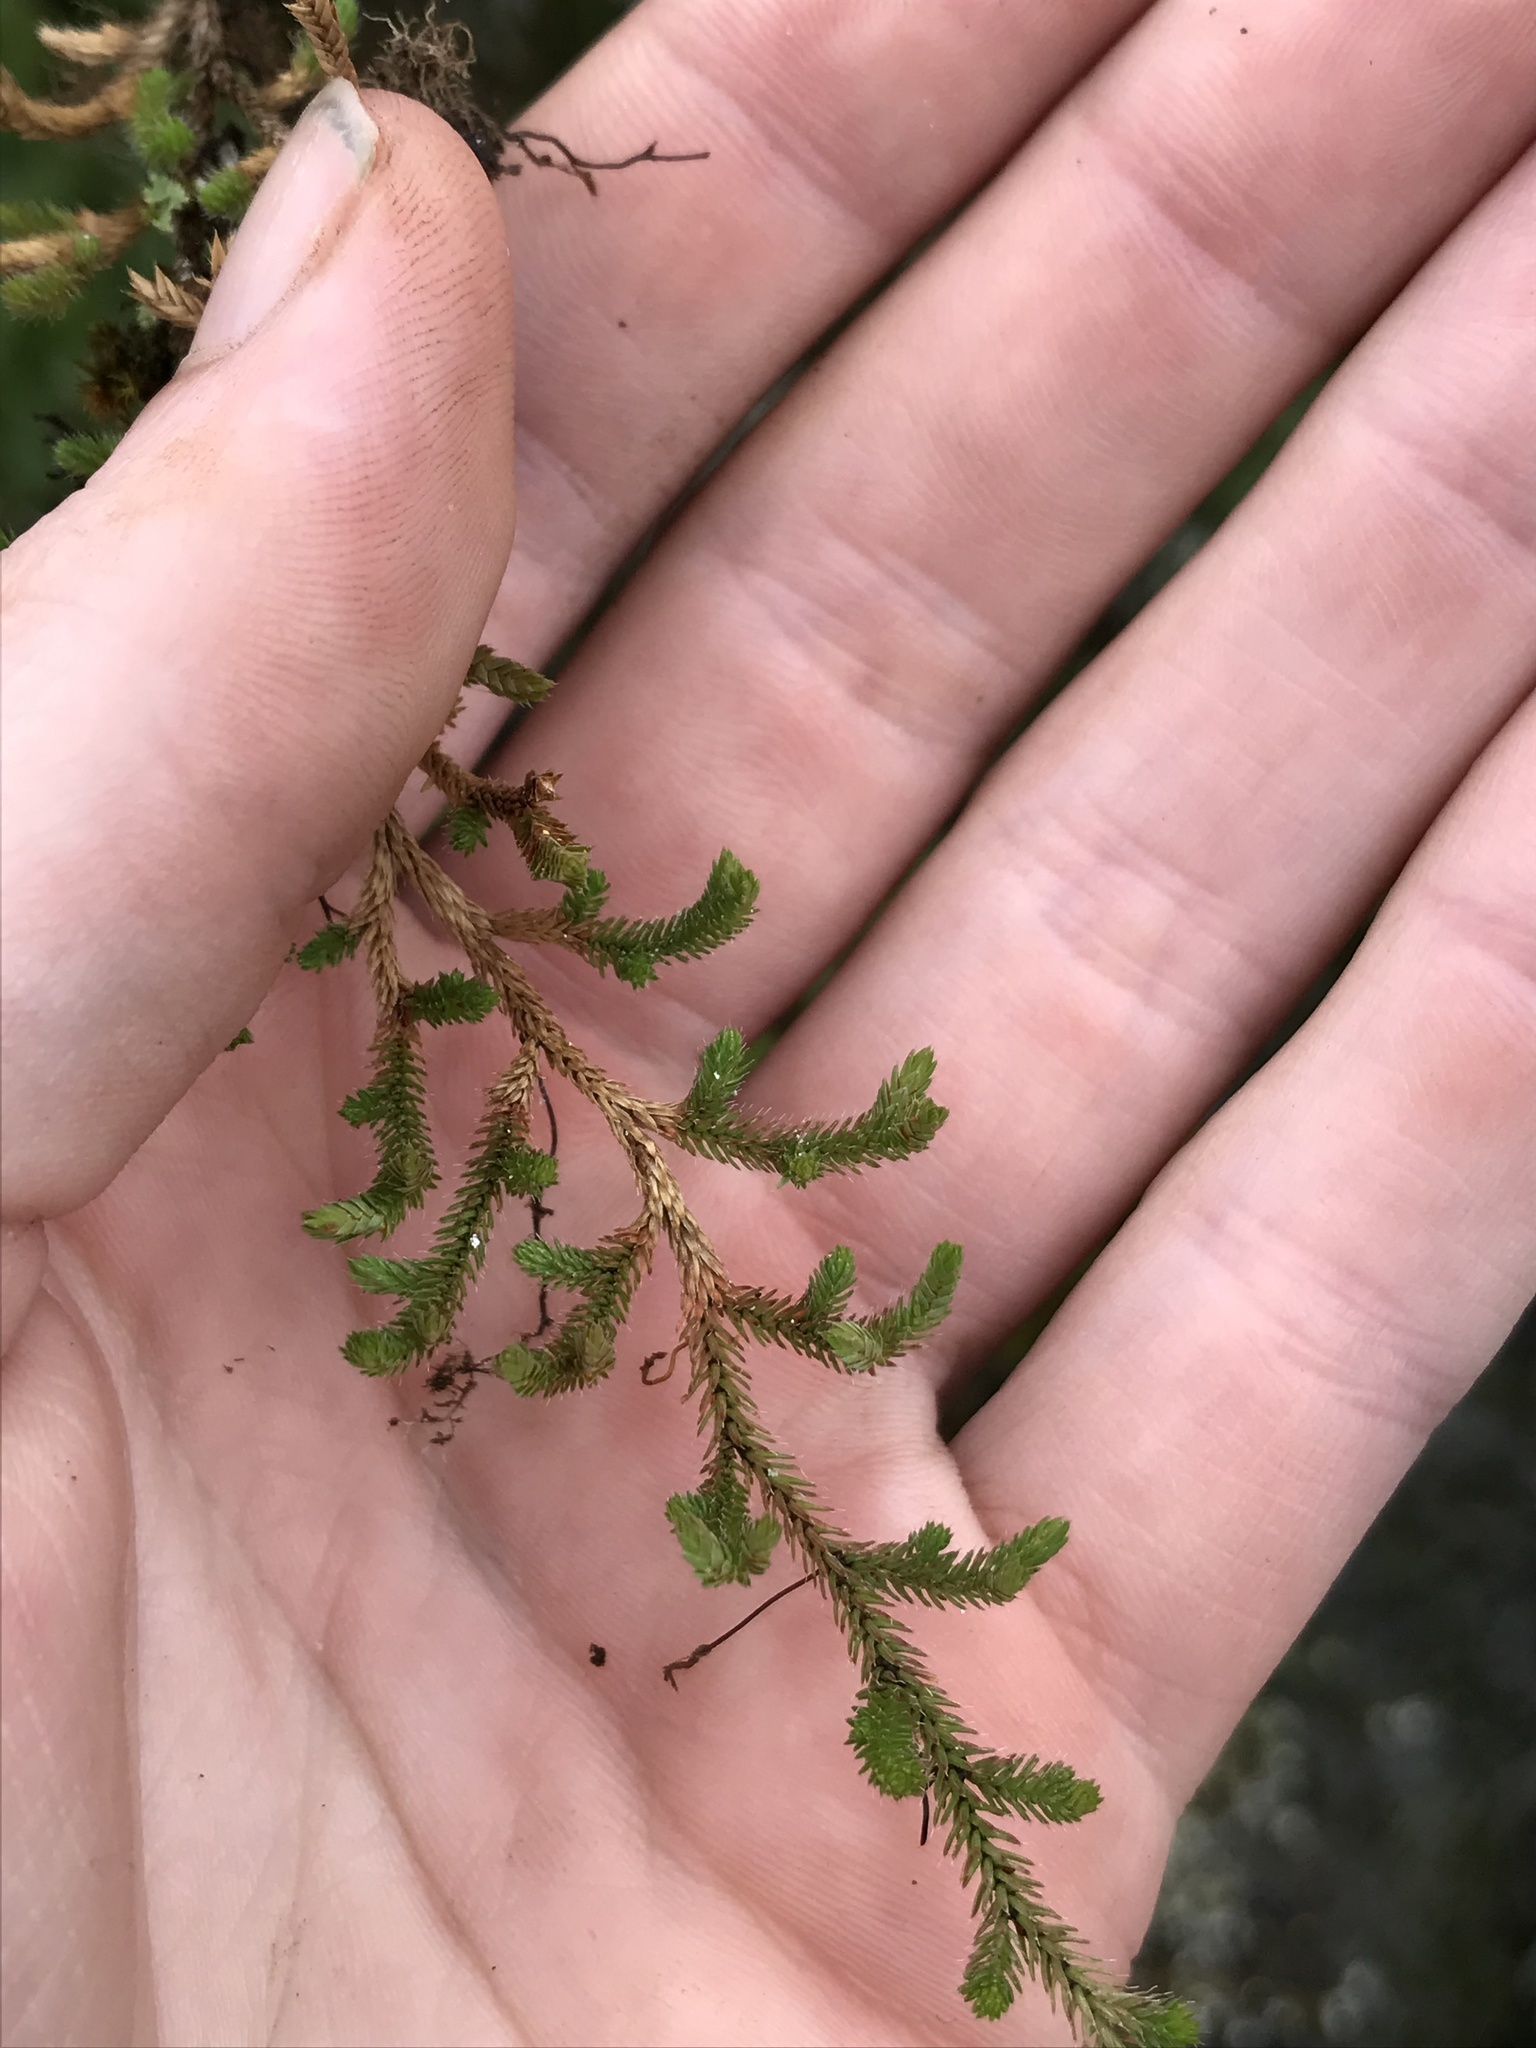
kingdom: Plantae
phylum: Tracheophyta
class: Lycopodiopsida
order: Selaginellales
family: Selaginellaceae
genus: Selaginella
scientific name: Selaginella wallacei
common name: Wallace's selaginella
